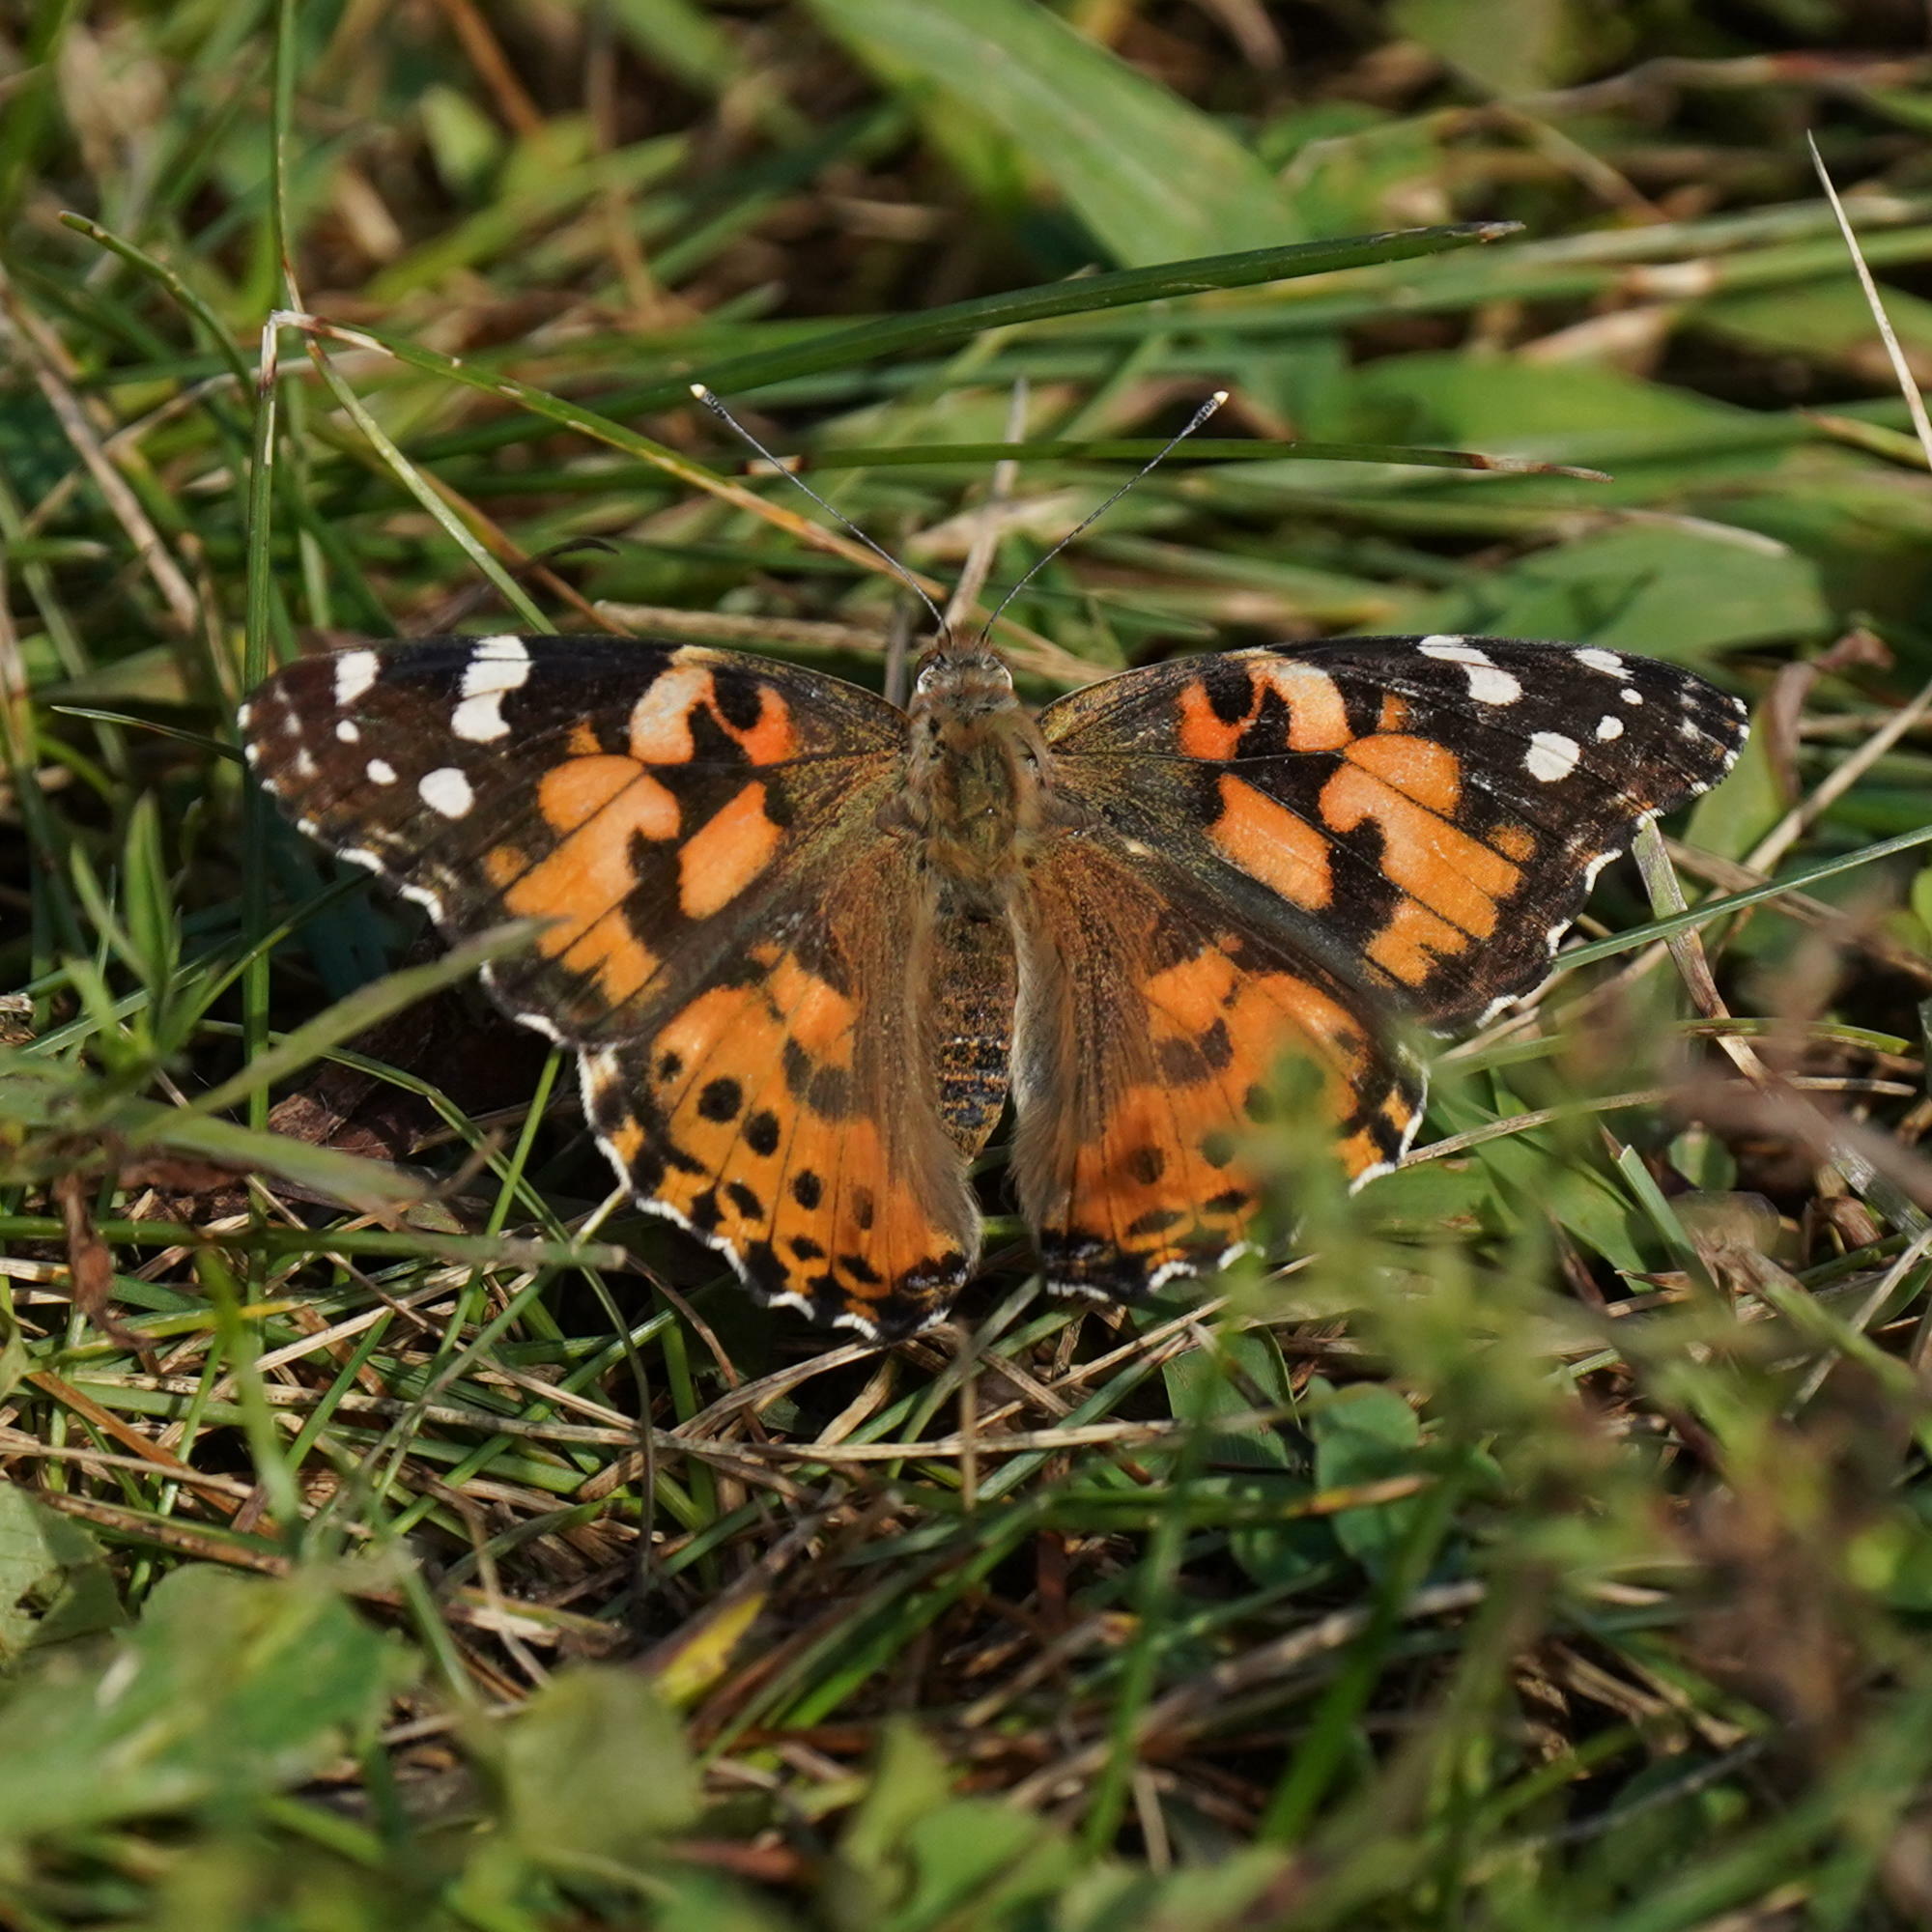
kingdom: Animalia
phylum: Arthropoda
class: Insecta
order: Lepidoptera
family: Nymphalidae
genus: Vanessa
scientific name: Vanessa cardui
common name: Painted lady
